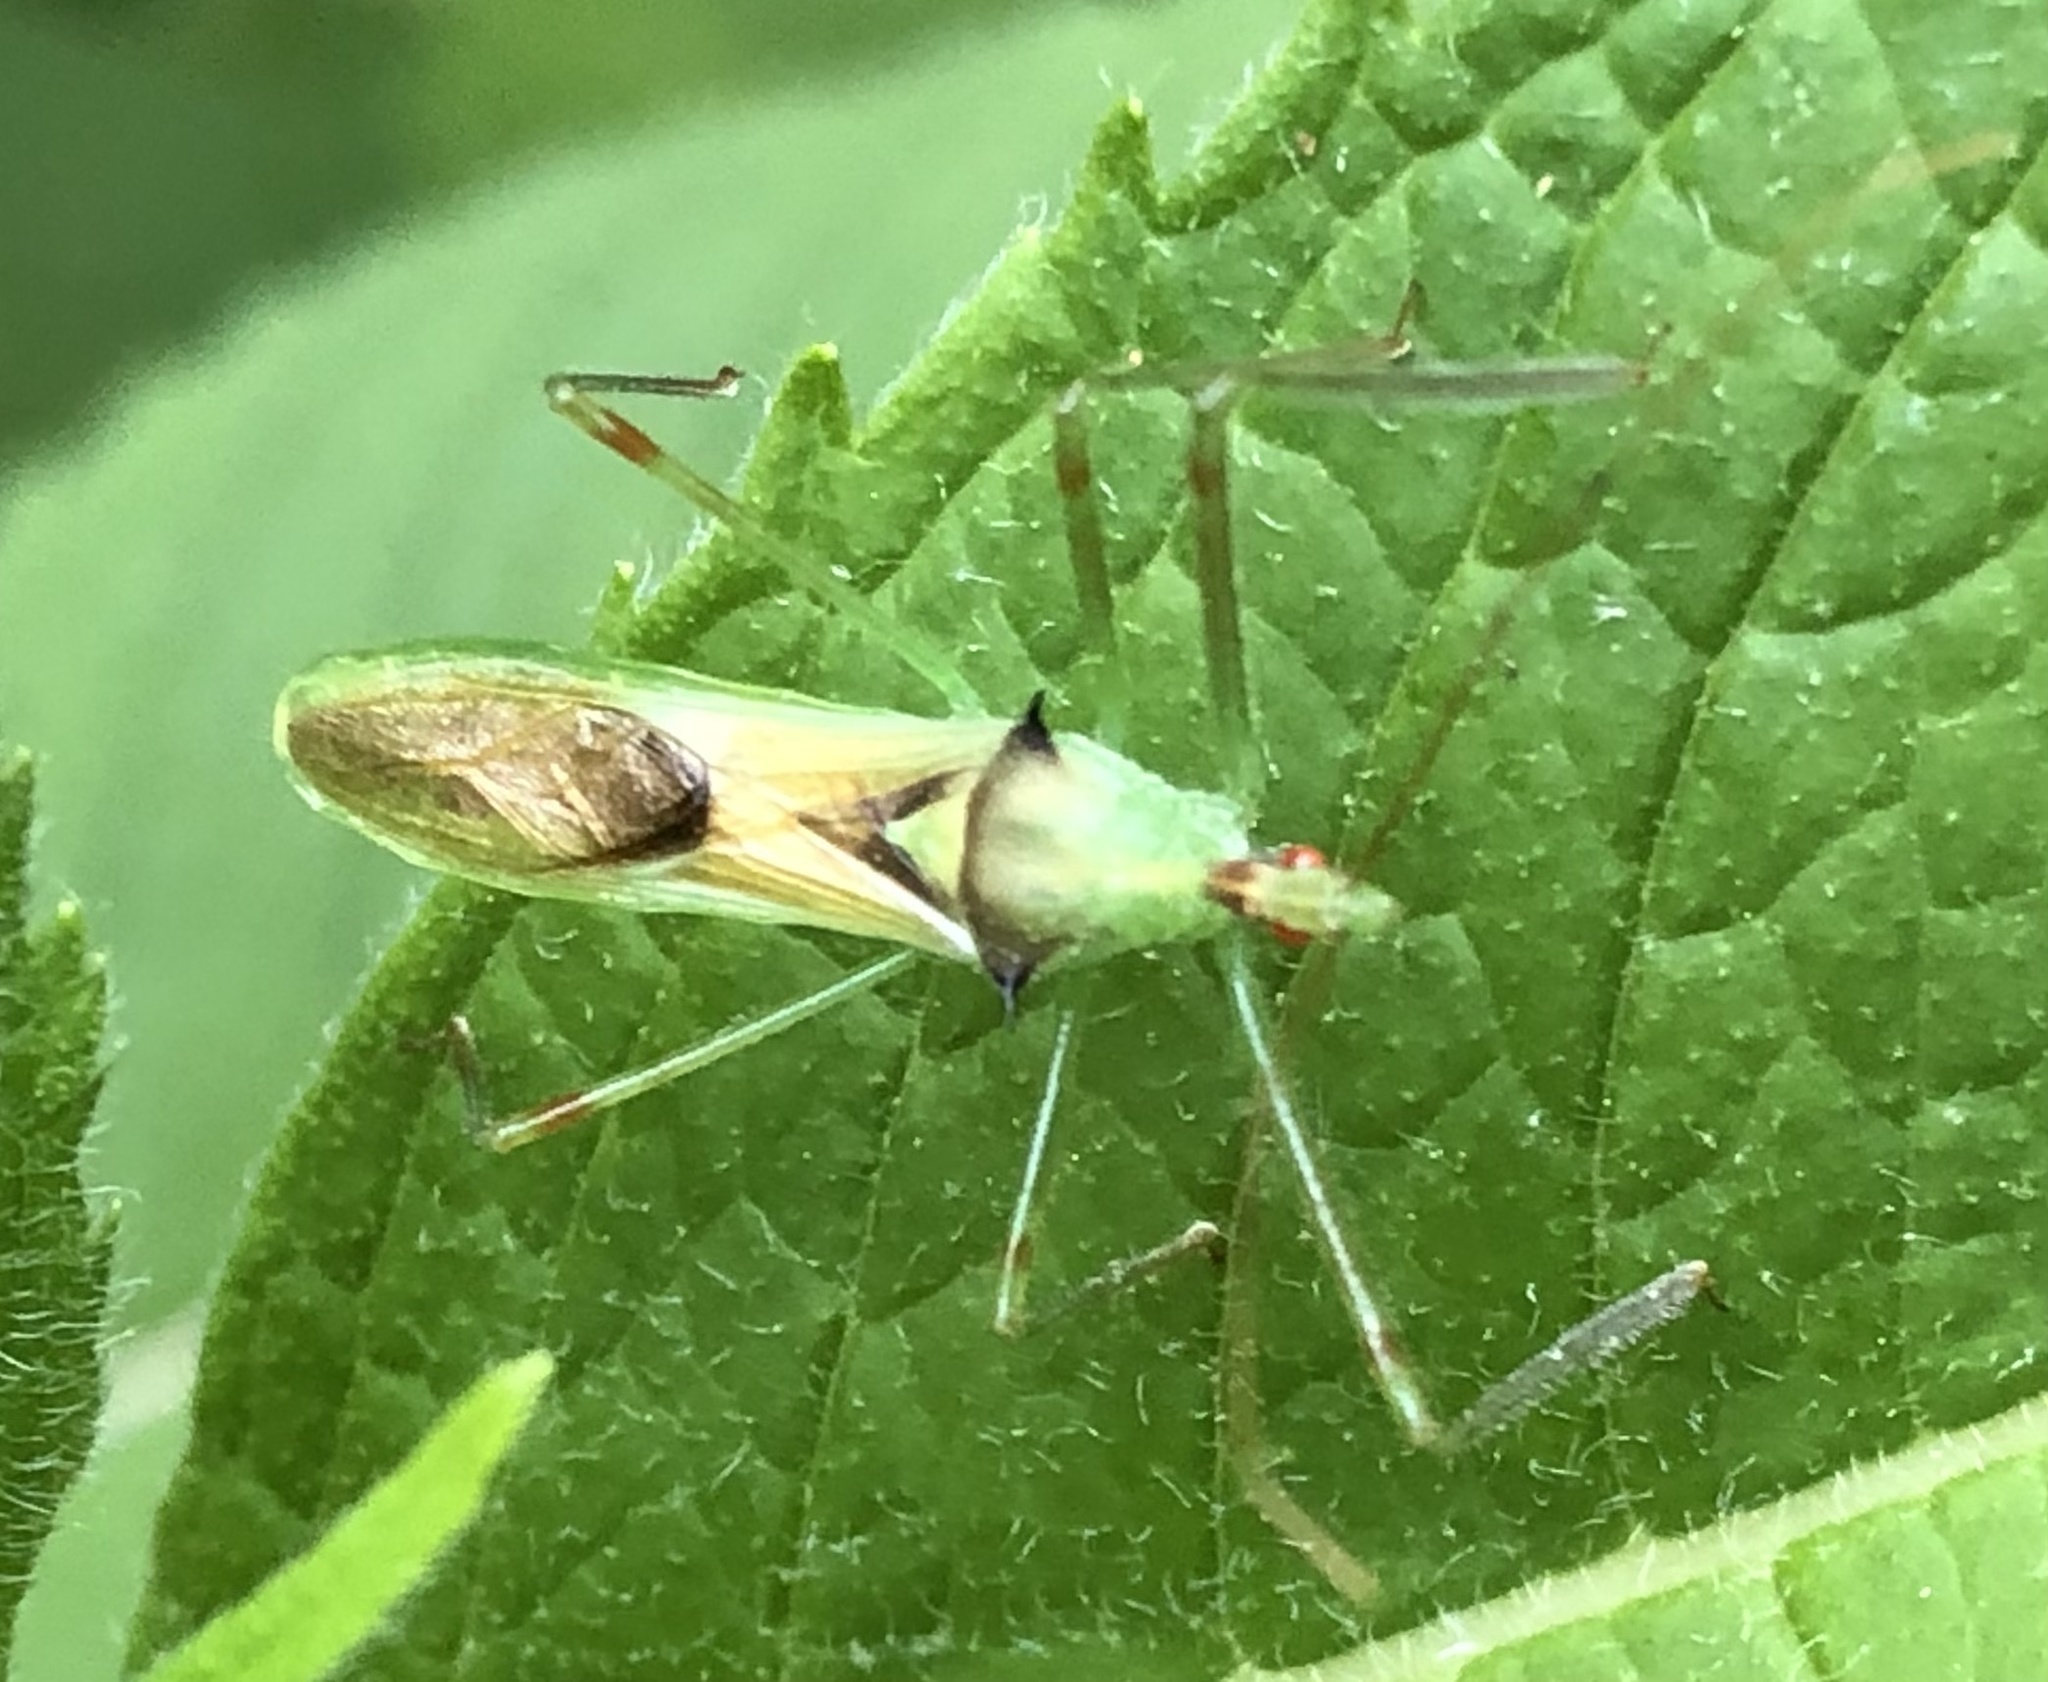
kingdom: Animalia
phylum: Arthropoda
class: Insecta
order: Hemiptera
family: Reduviidae
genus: Zelus
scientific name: Zelus luridus
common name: Pale green assassin bug
